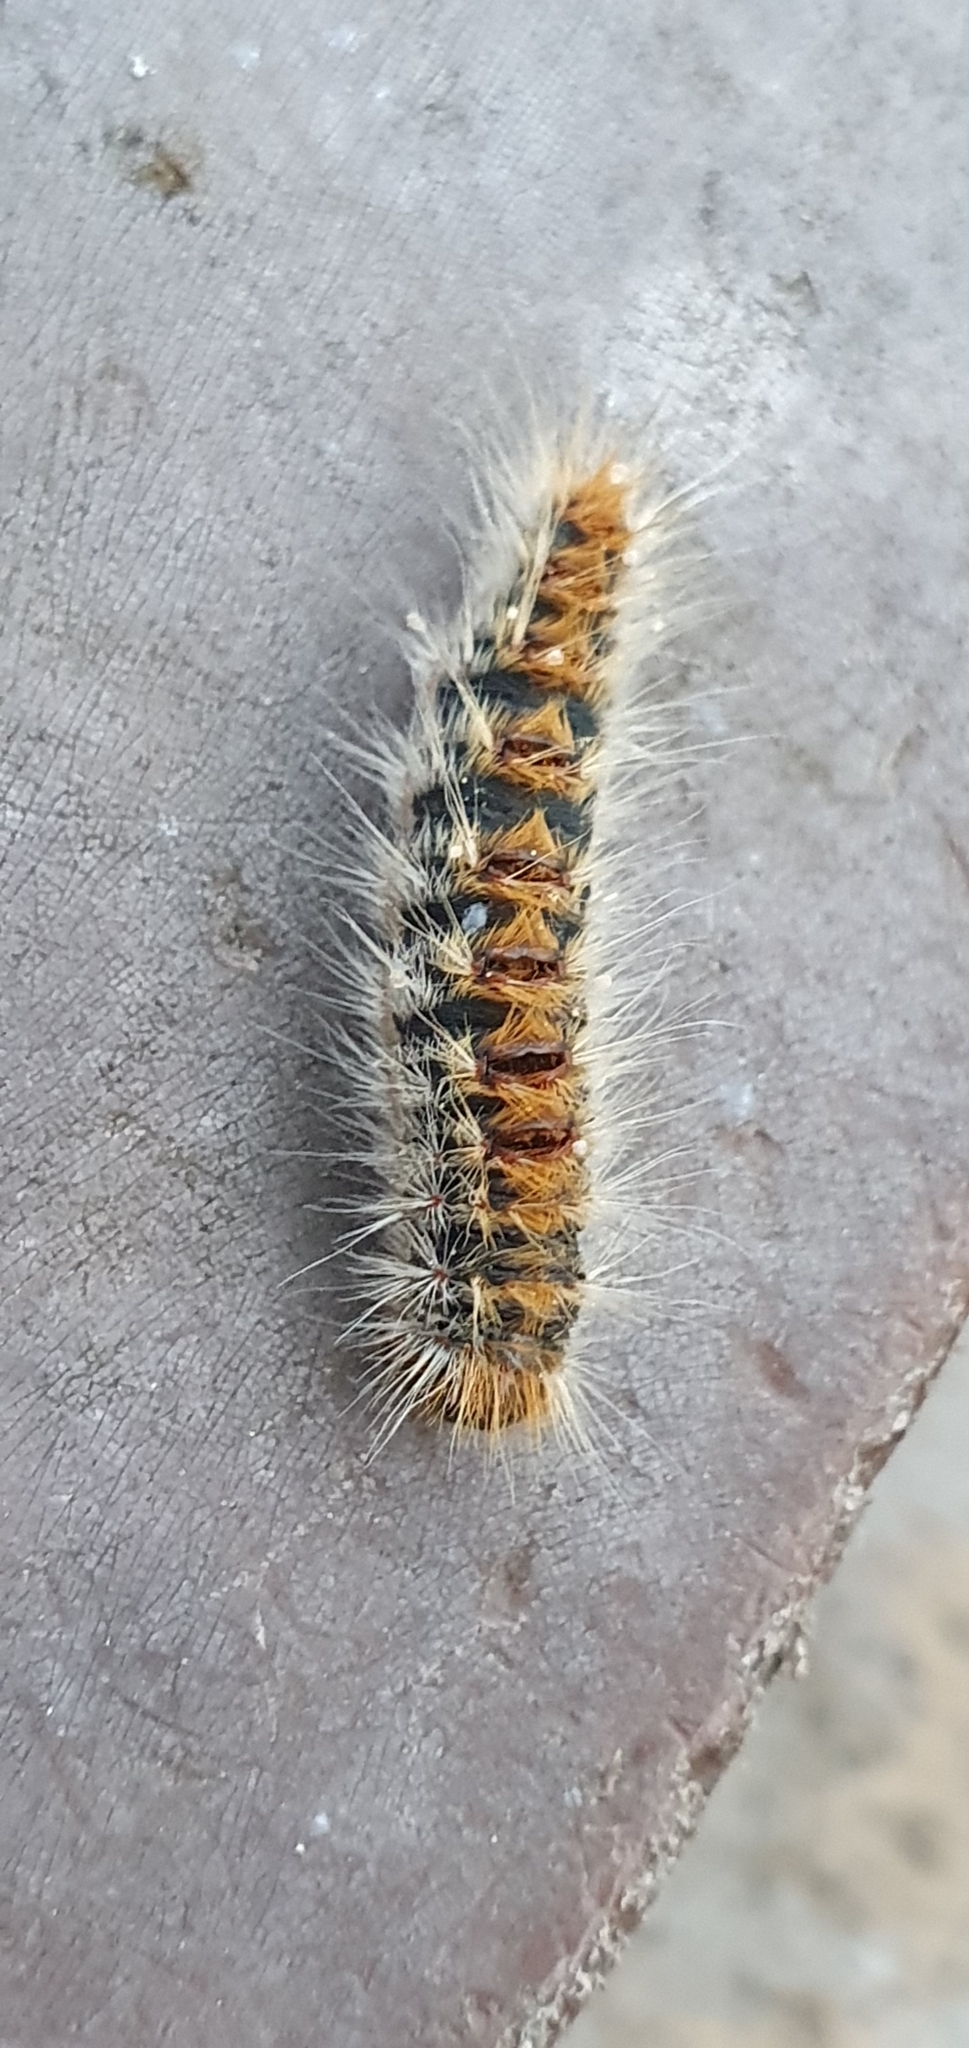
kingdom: Animalia
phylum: Arthropoda
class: Insecta
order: Lepidoptera
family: Notodontidae
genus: Thaumetopoea
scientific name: Thaumetopoea pityocampa
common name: Pine processionary
